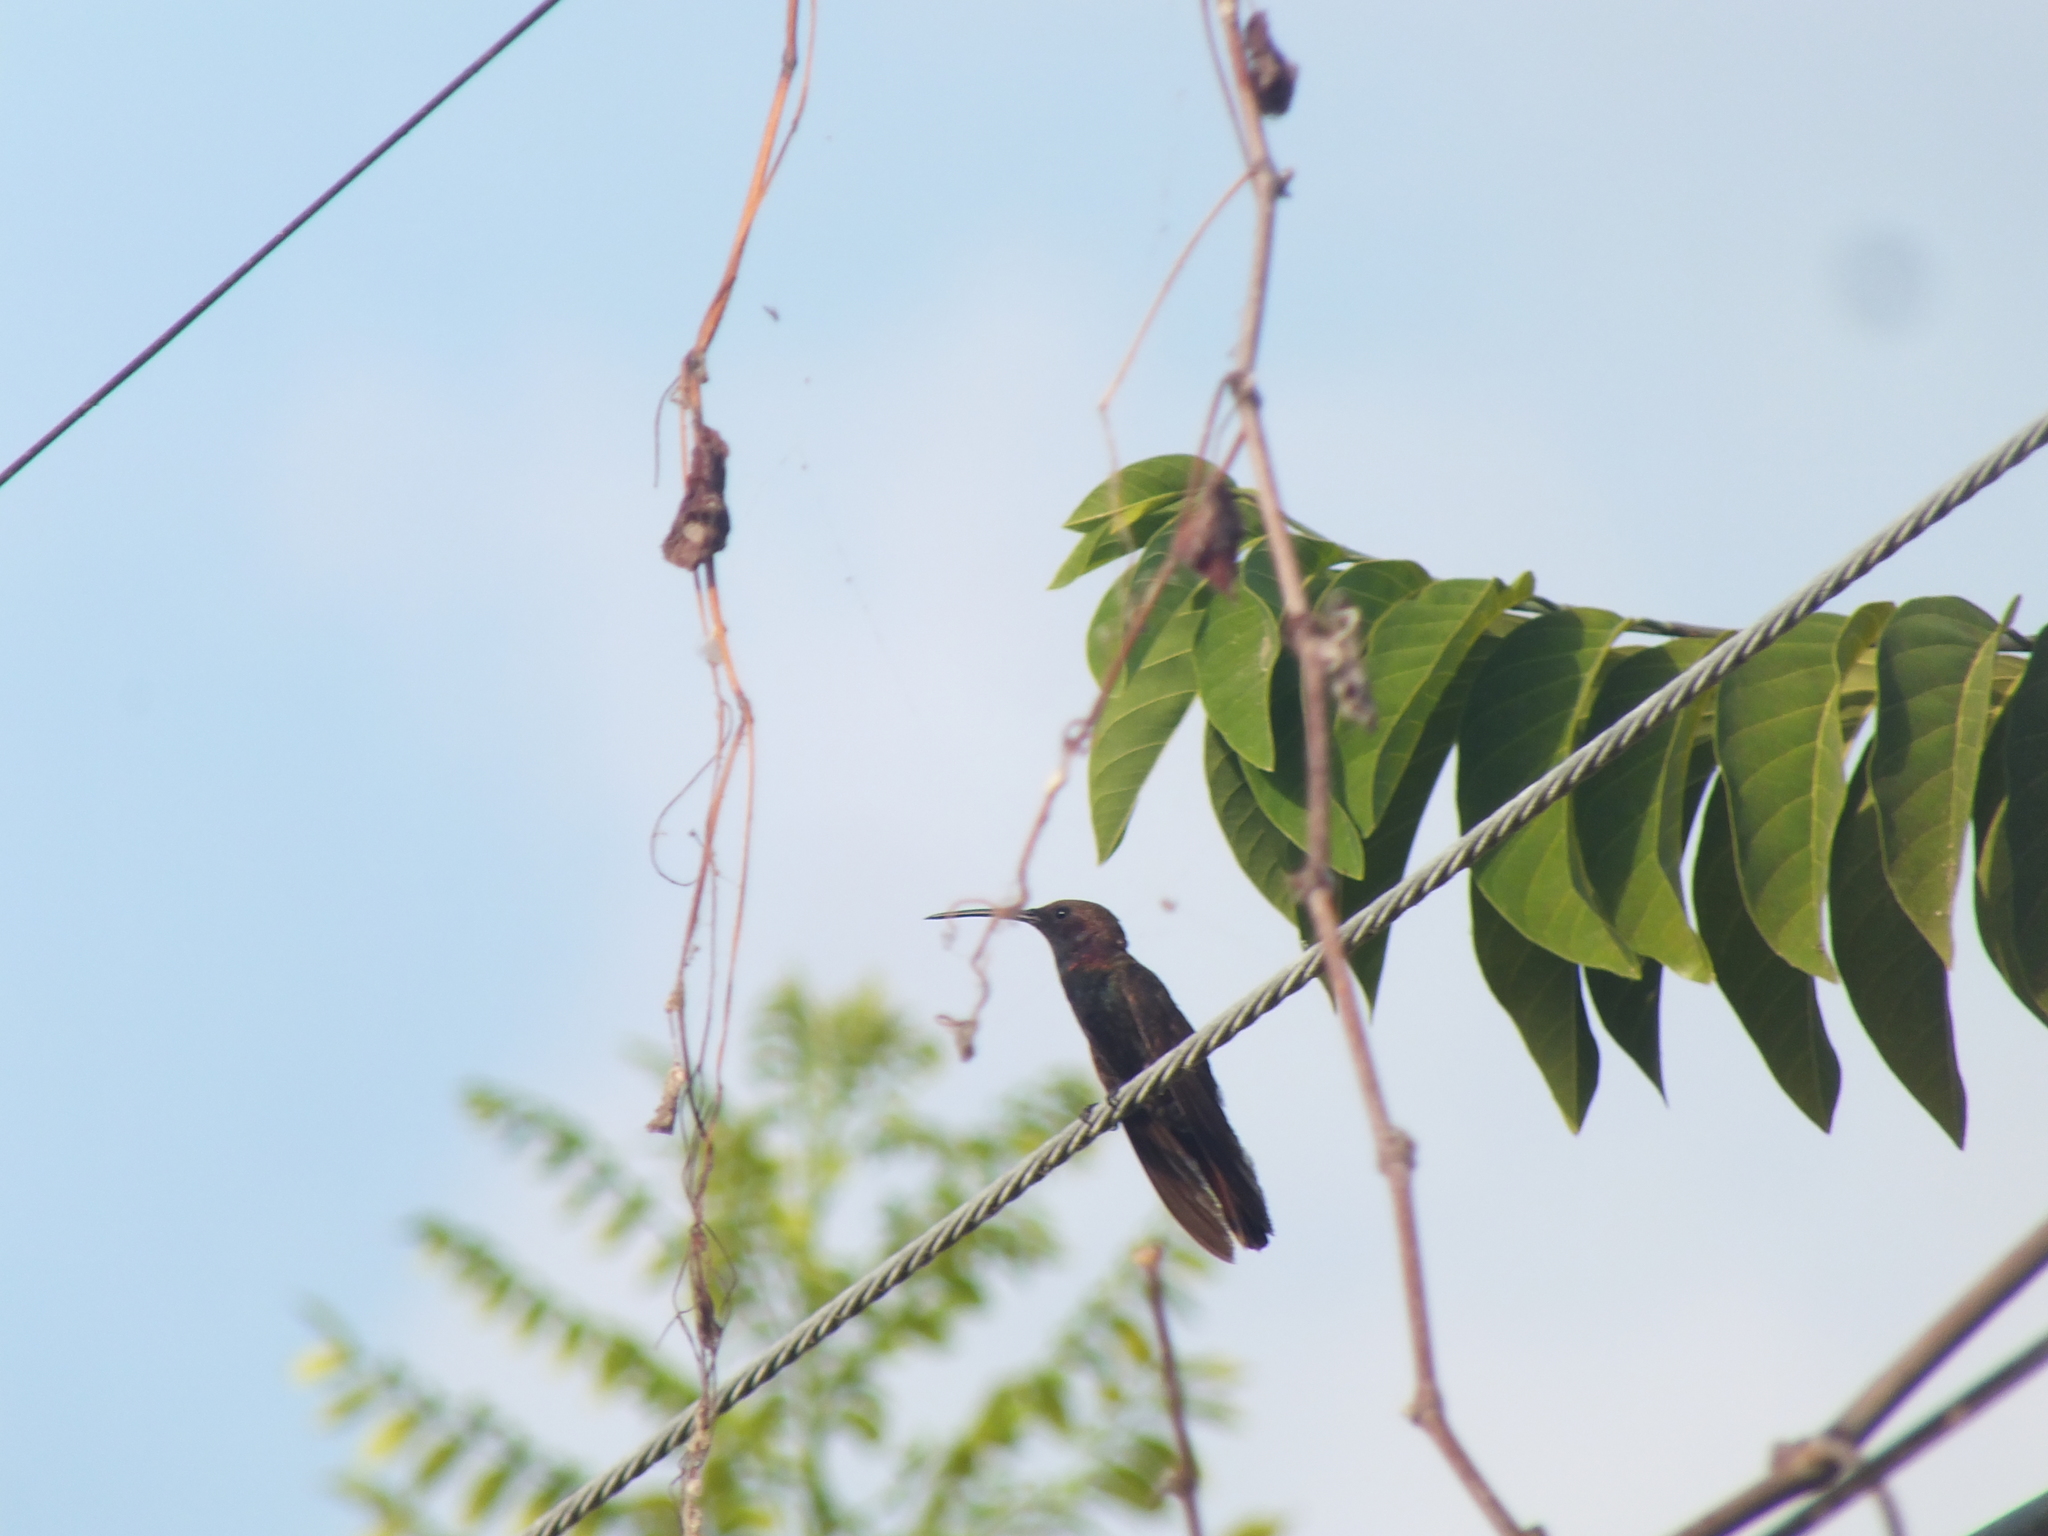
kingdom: Animalia
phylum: Chordata
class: Aves
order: Apodiformes
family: Trochilidae
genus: Anthracothorax
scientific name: Anthracothorax mango
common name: Jamaican mango
